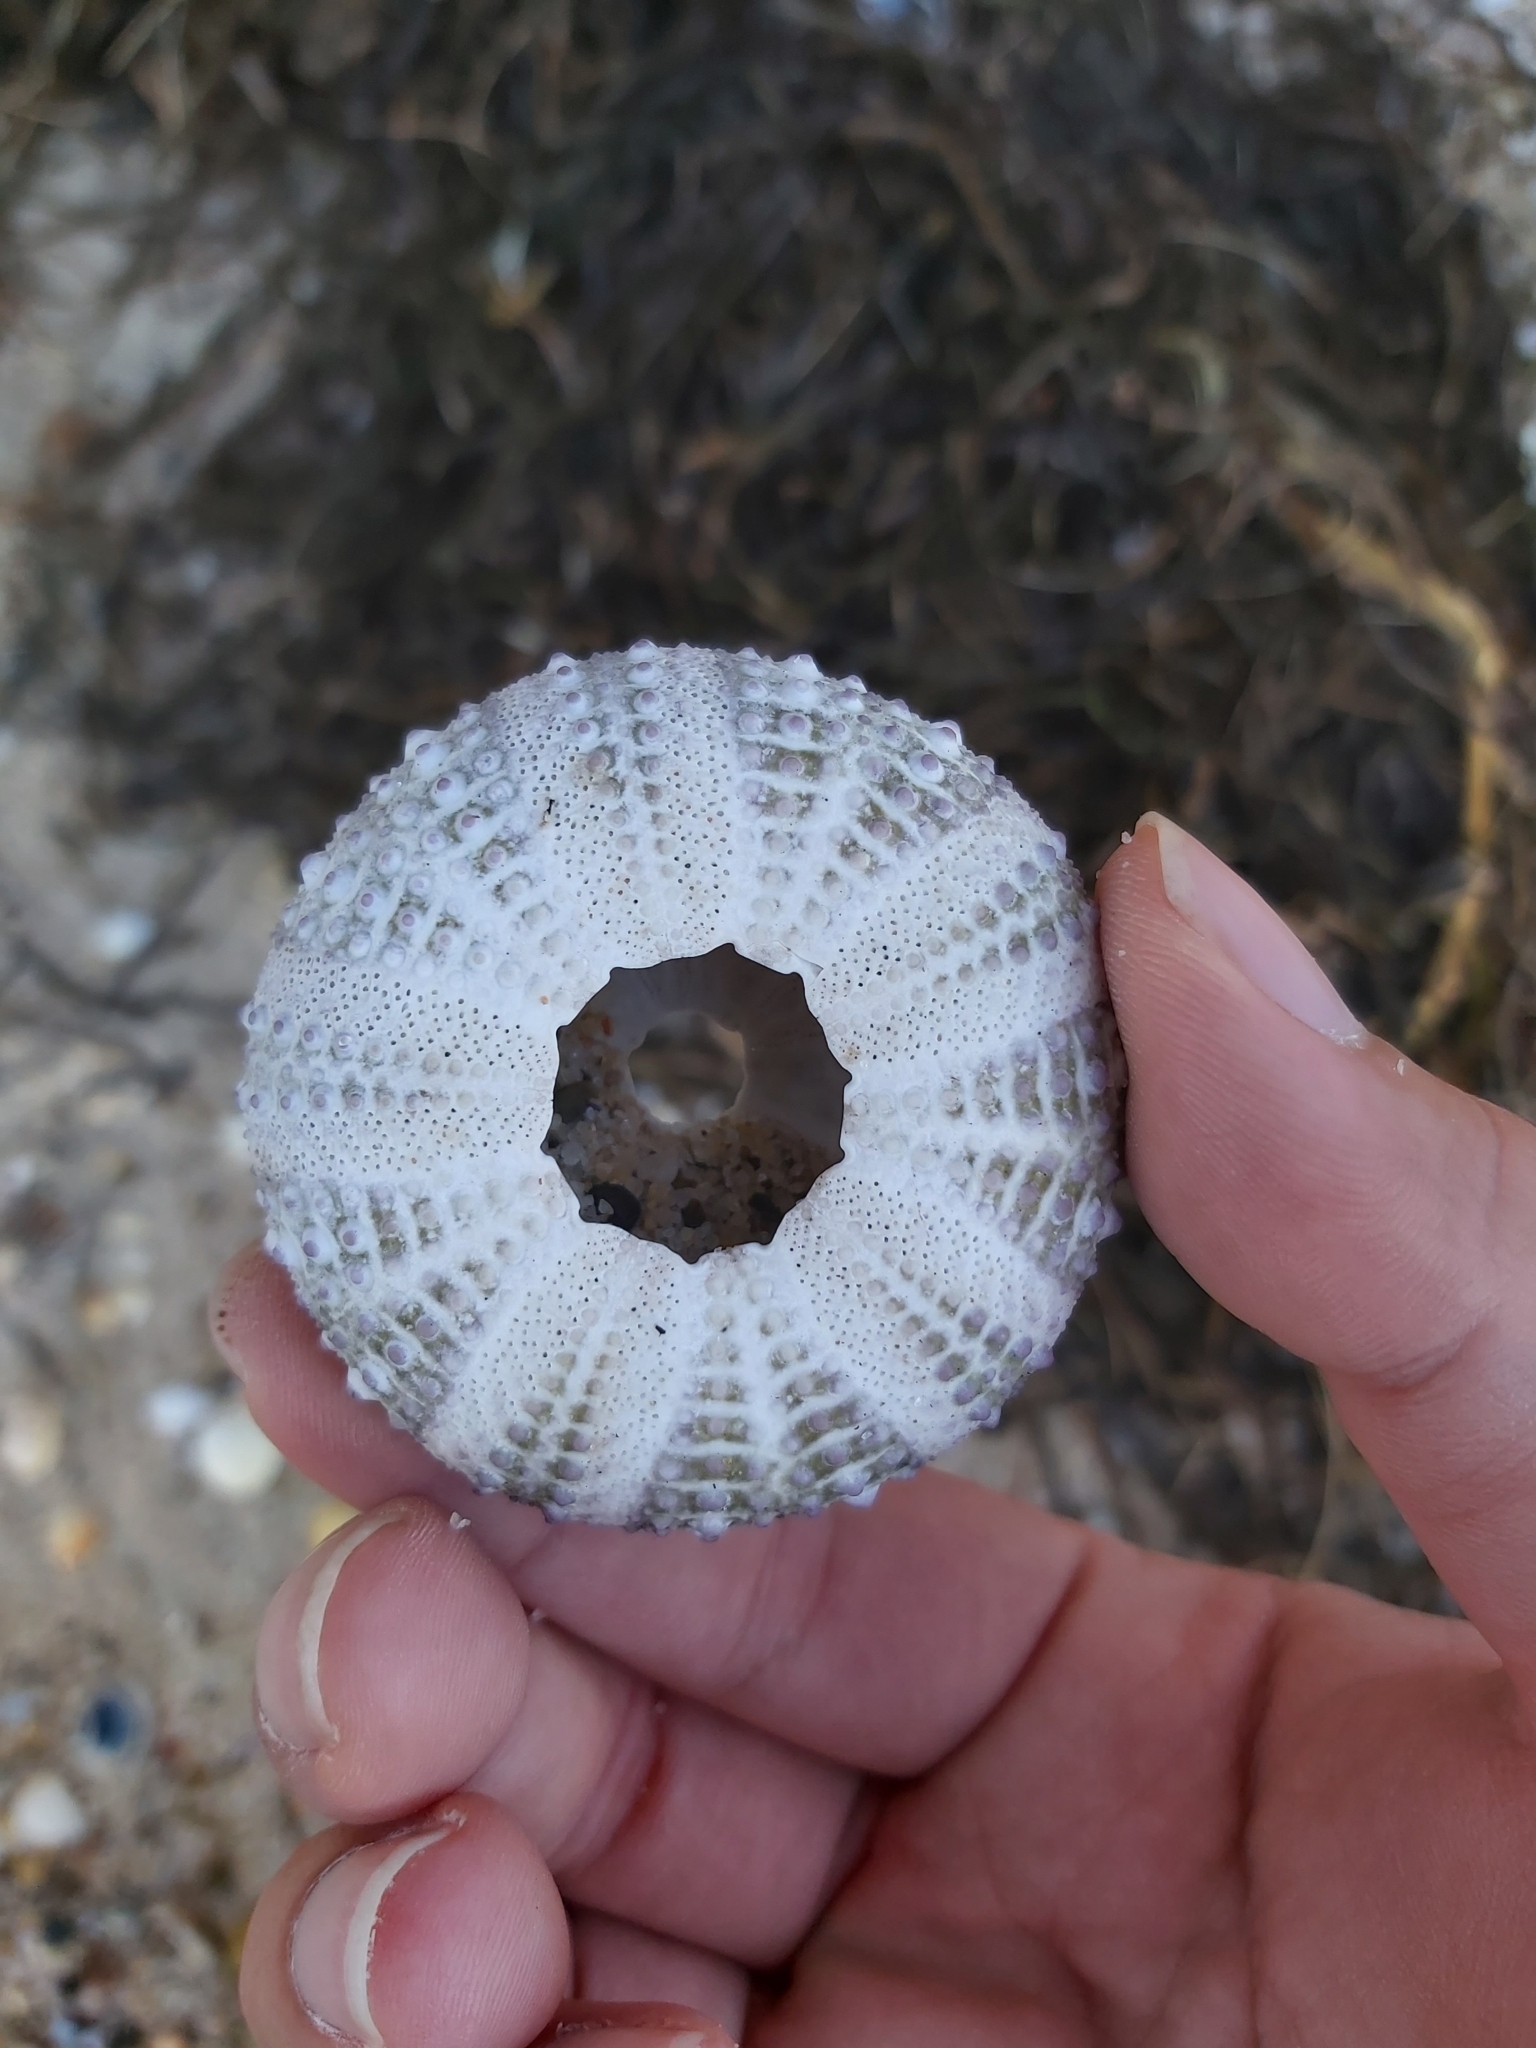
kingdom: Animalia
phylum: Echinodermata
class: Echinoidea
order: Camarodonta
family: Echinometridae
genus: Heliocidaris
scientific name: Heliocidaris erythrogramma
